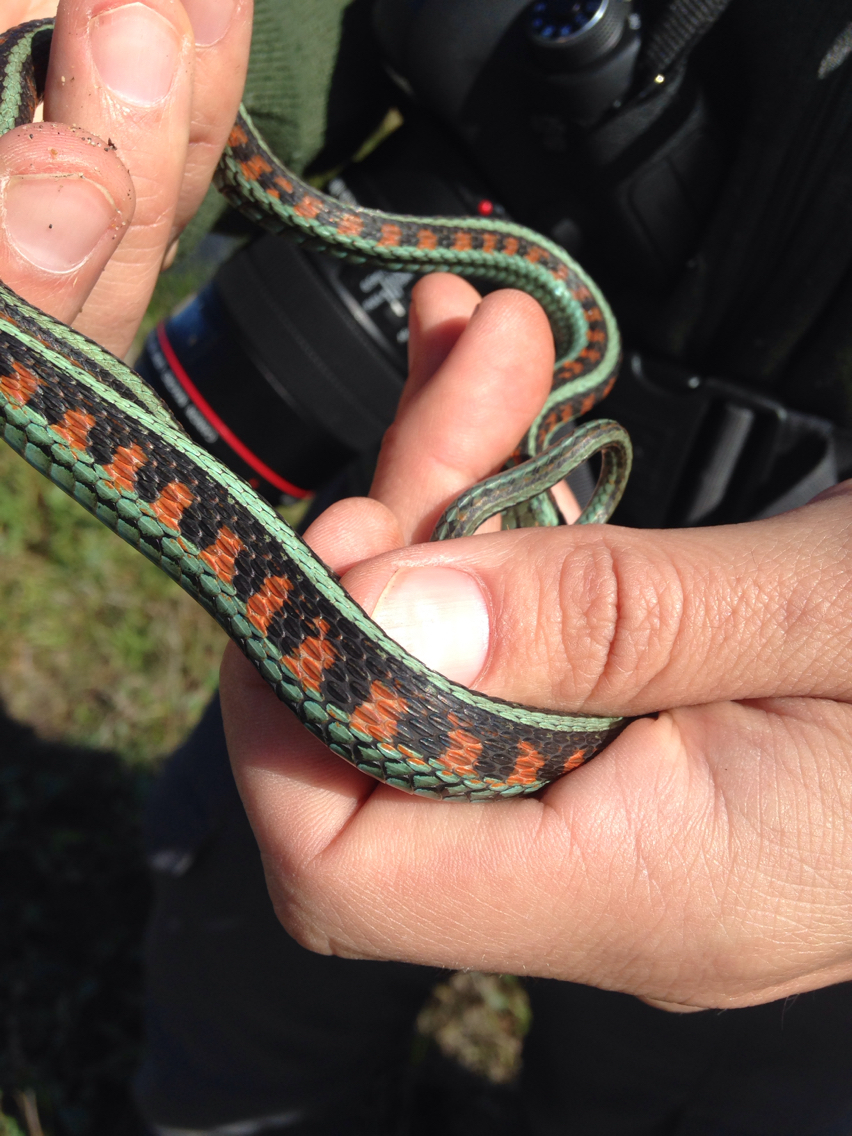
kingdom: Animalia
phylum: Chordata
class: Squamata
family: Colubridae
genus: Thamnophis
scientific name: Thamnophis sirtalis
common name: Common garter snake
